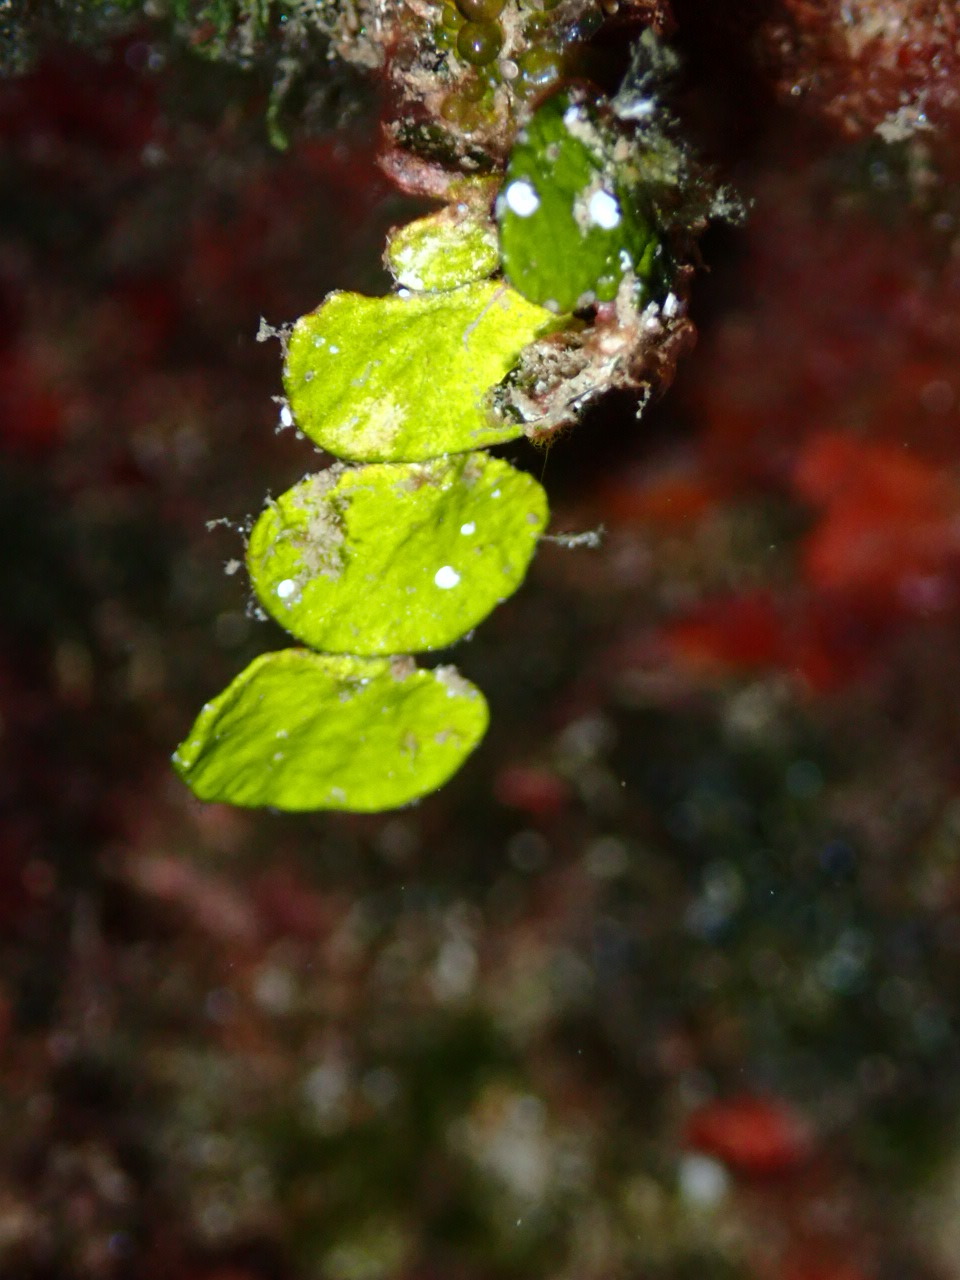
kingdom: Plantae
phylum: Chlorophyta
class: Ulvophyceae
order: Bryopsidales
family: Halimedaceae
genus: Halimeda
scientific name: Halimeda tuna
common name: Stalked lettuce leaf algae
